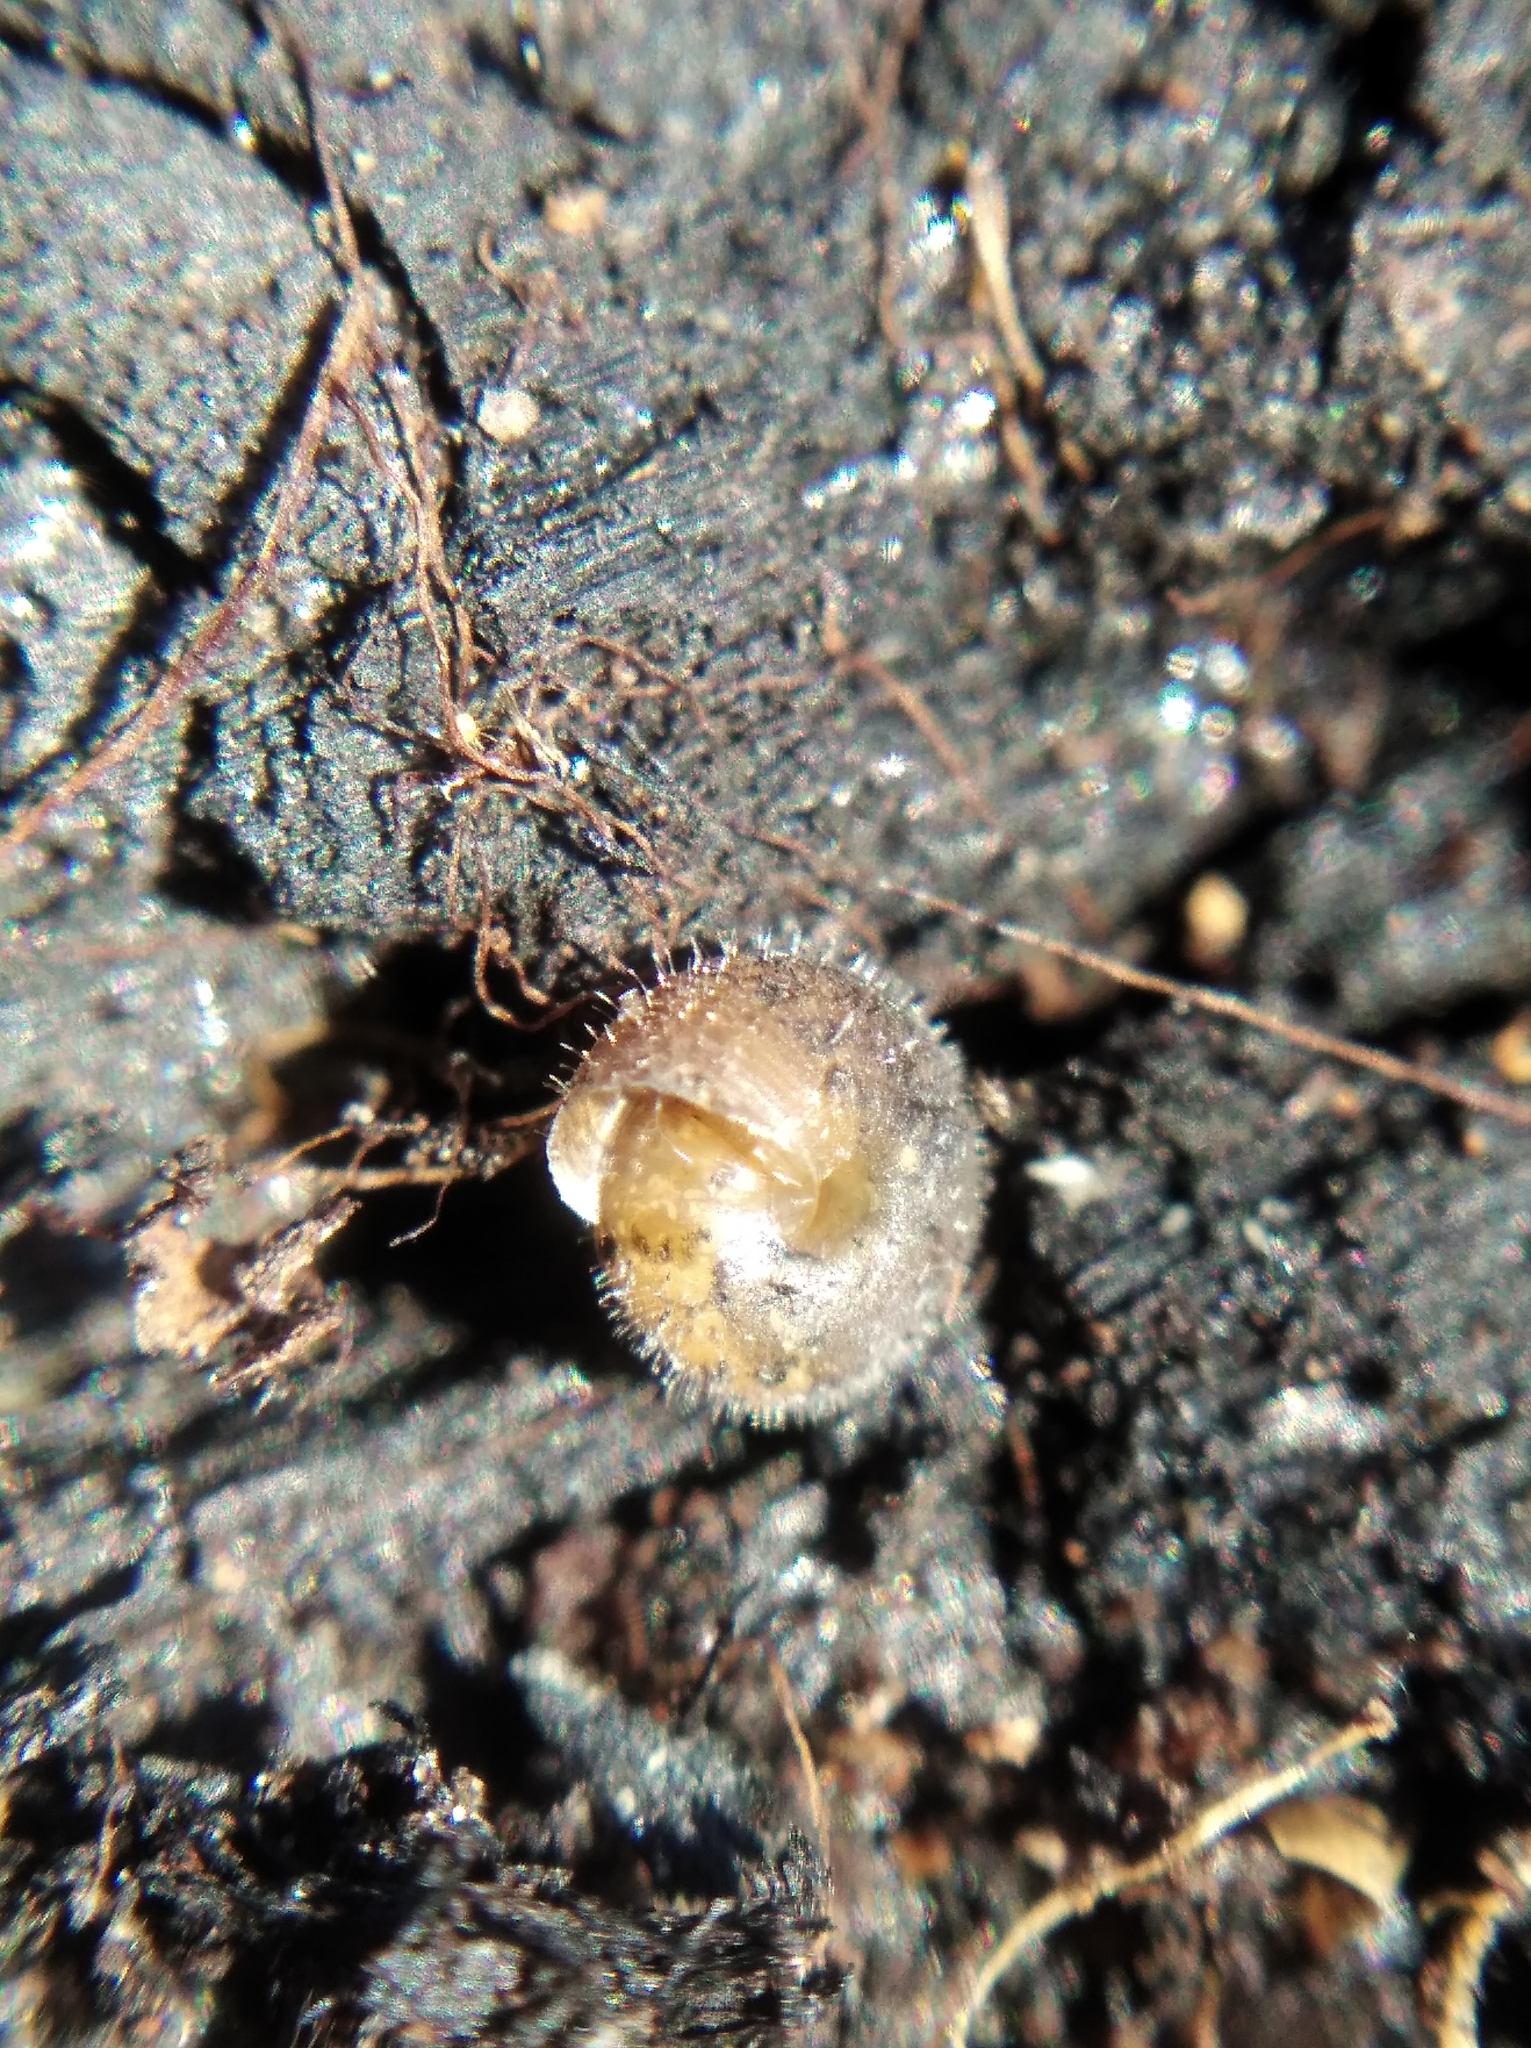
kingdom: Animalia
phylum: Mollusca
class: Gastropoda
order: Stylommatophora
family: Hygromiidae
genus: Trochulus
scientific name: Trochulus hispidus
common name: Hairy snail
